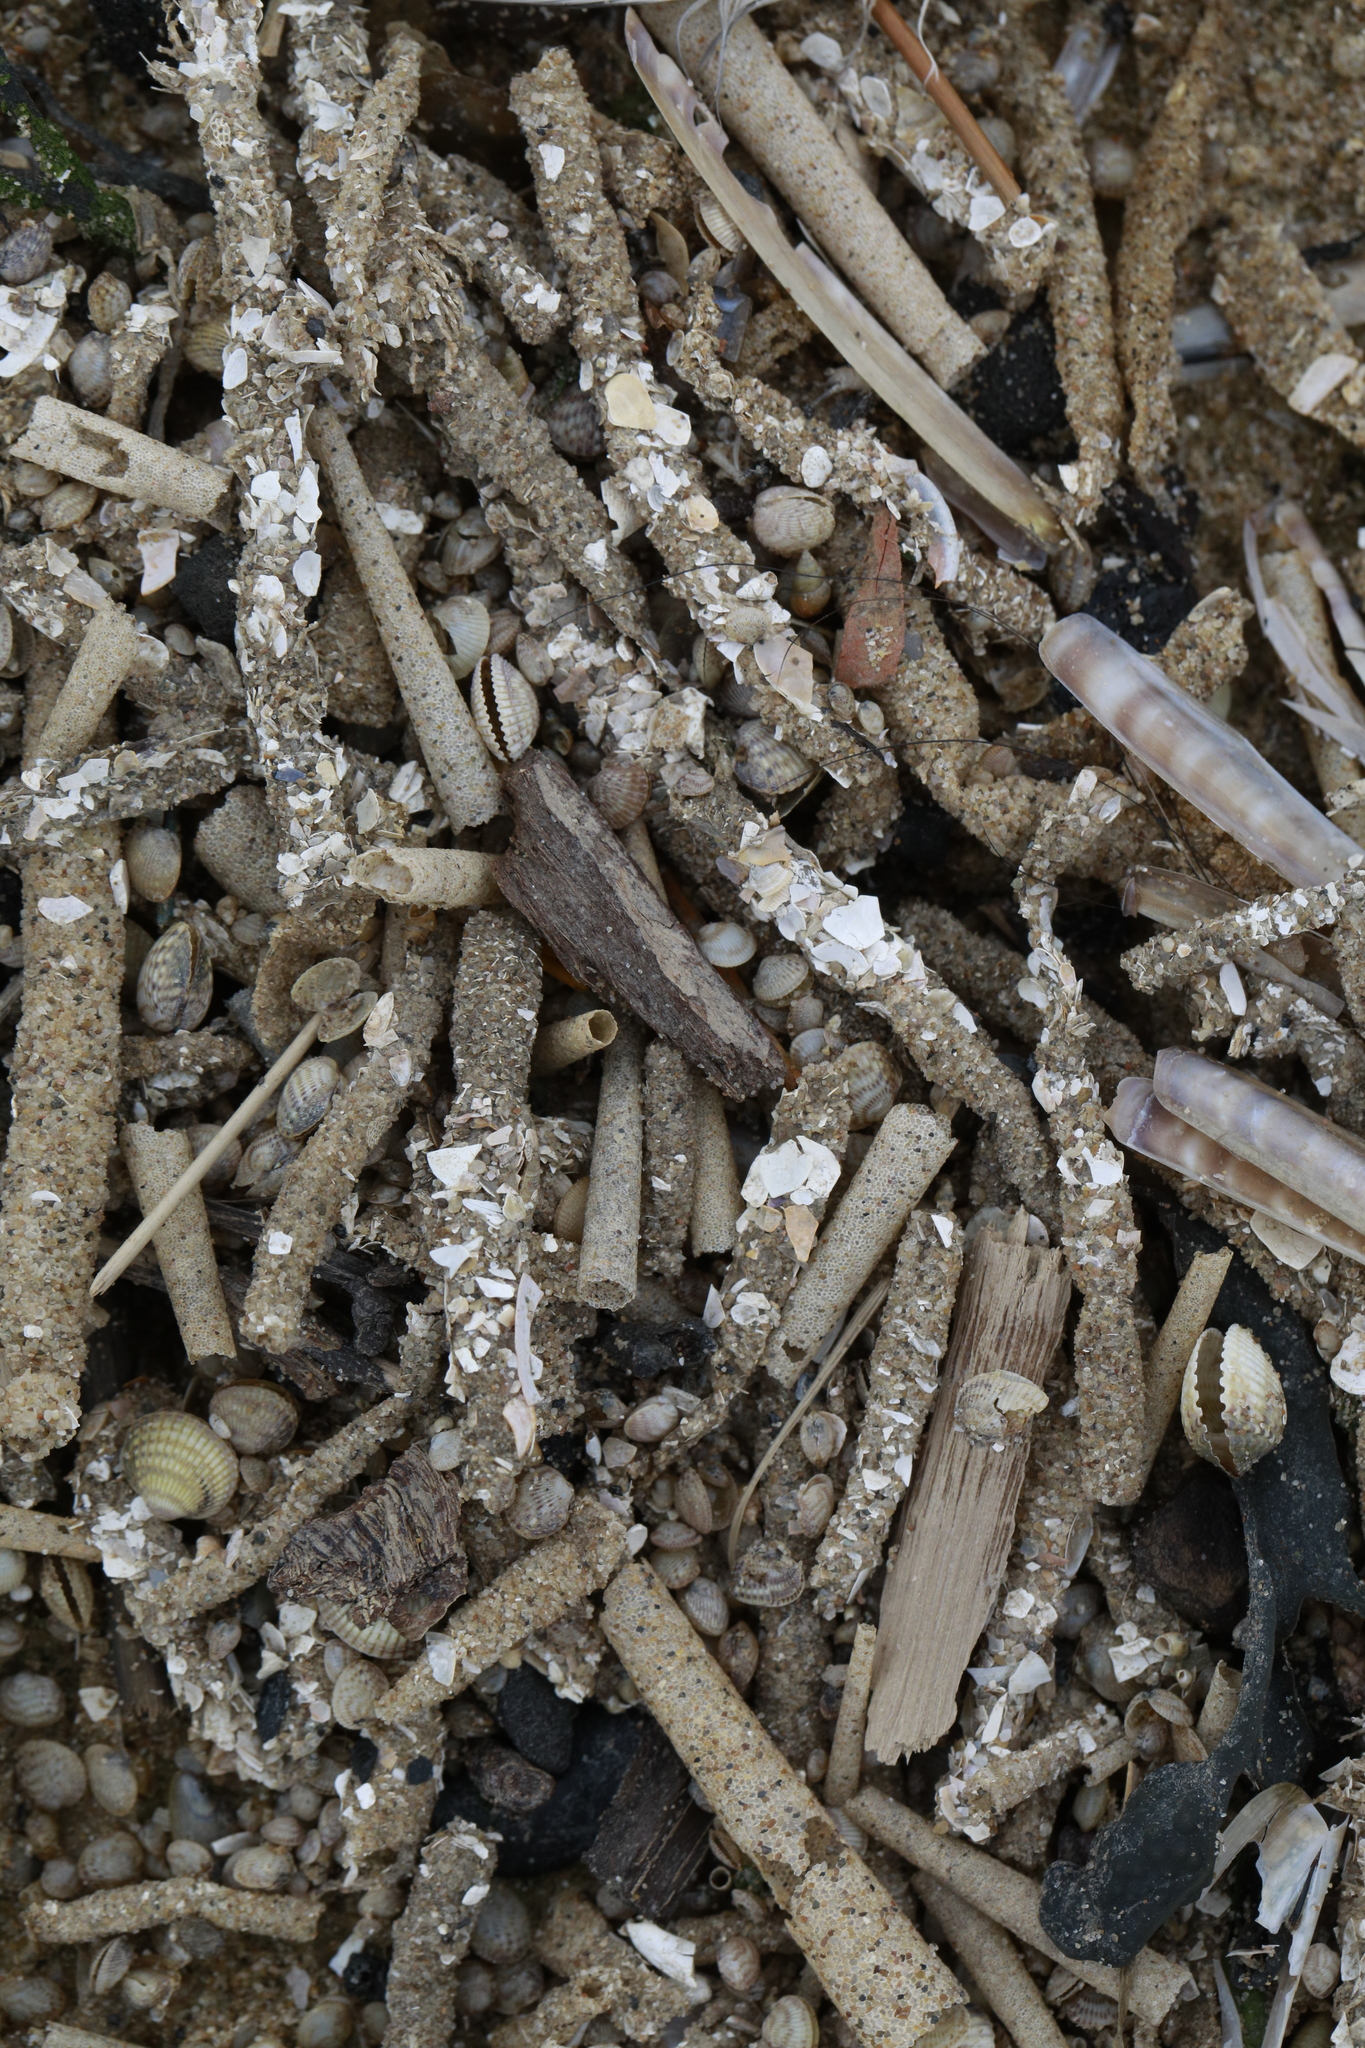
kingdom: Animalia
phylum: Annelida
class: Polychaeta
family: Pectinariidae
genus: Pectinaria
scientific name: Pectinaria belgica
